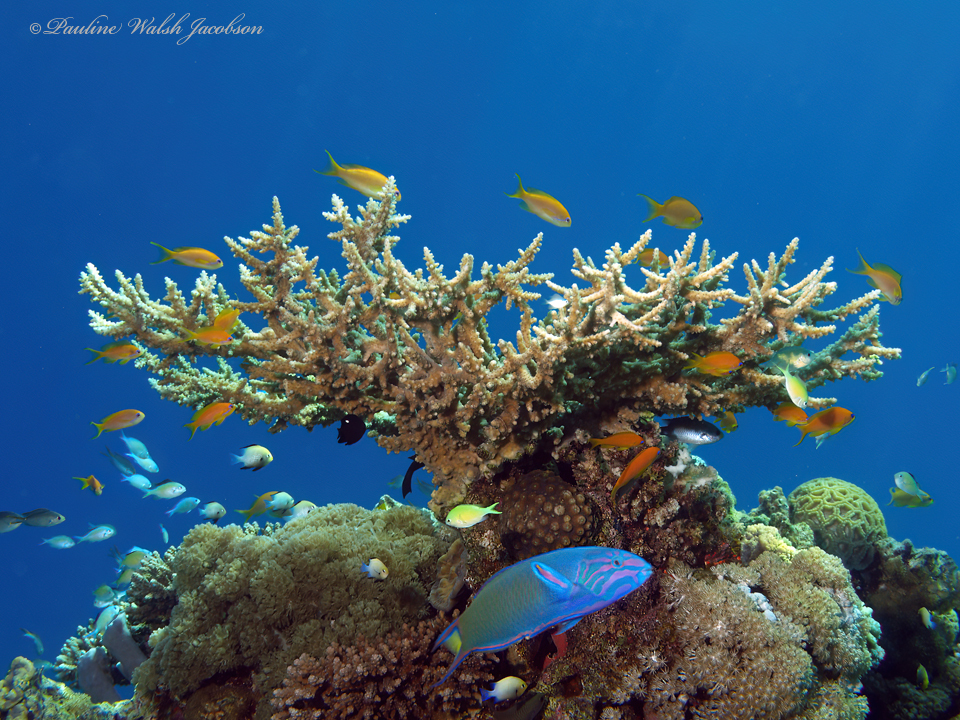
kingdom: Animalia
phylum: Chordata
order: Perciformes
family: Labridae
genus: Thalassoma
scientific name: Thalassoma lunare
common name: Blue wrasse
